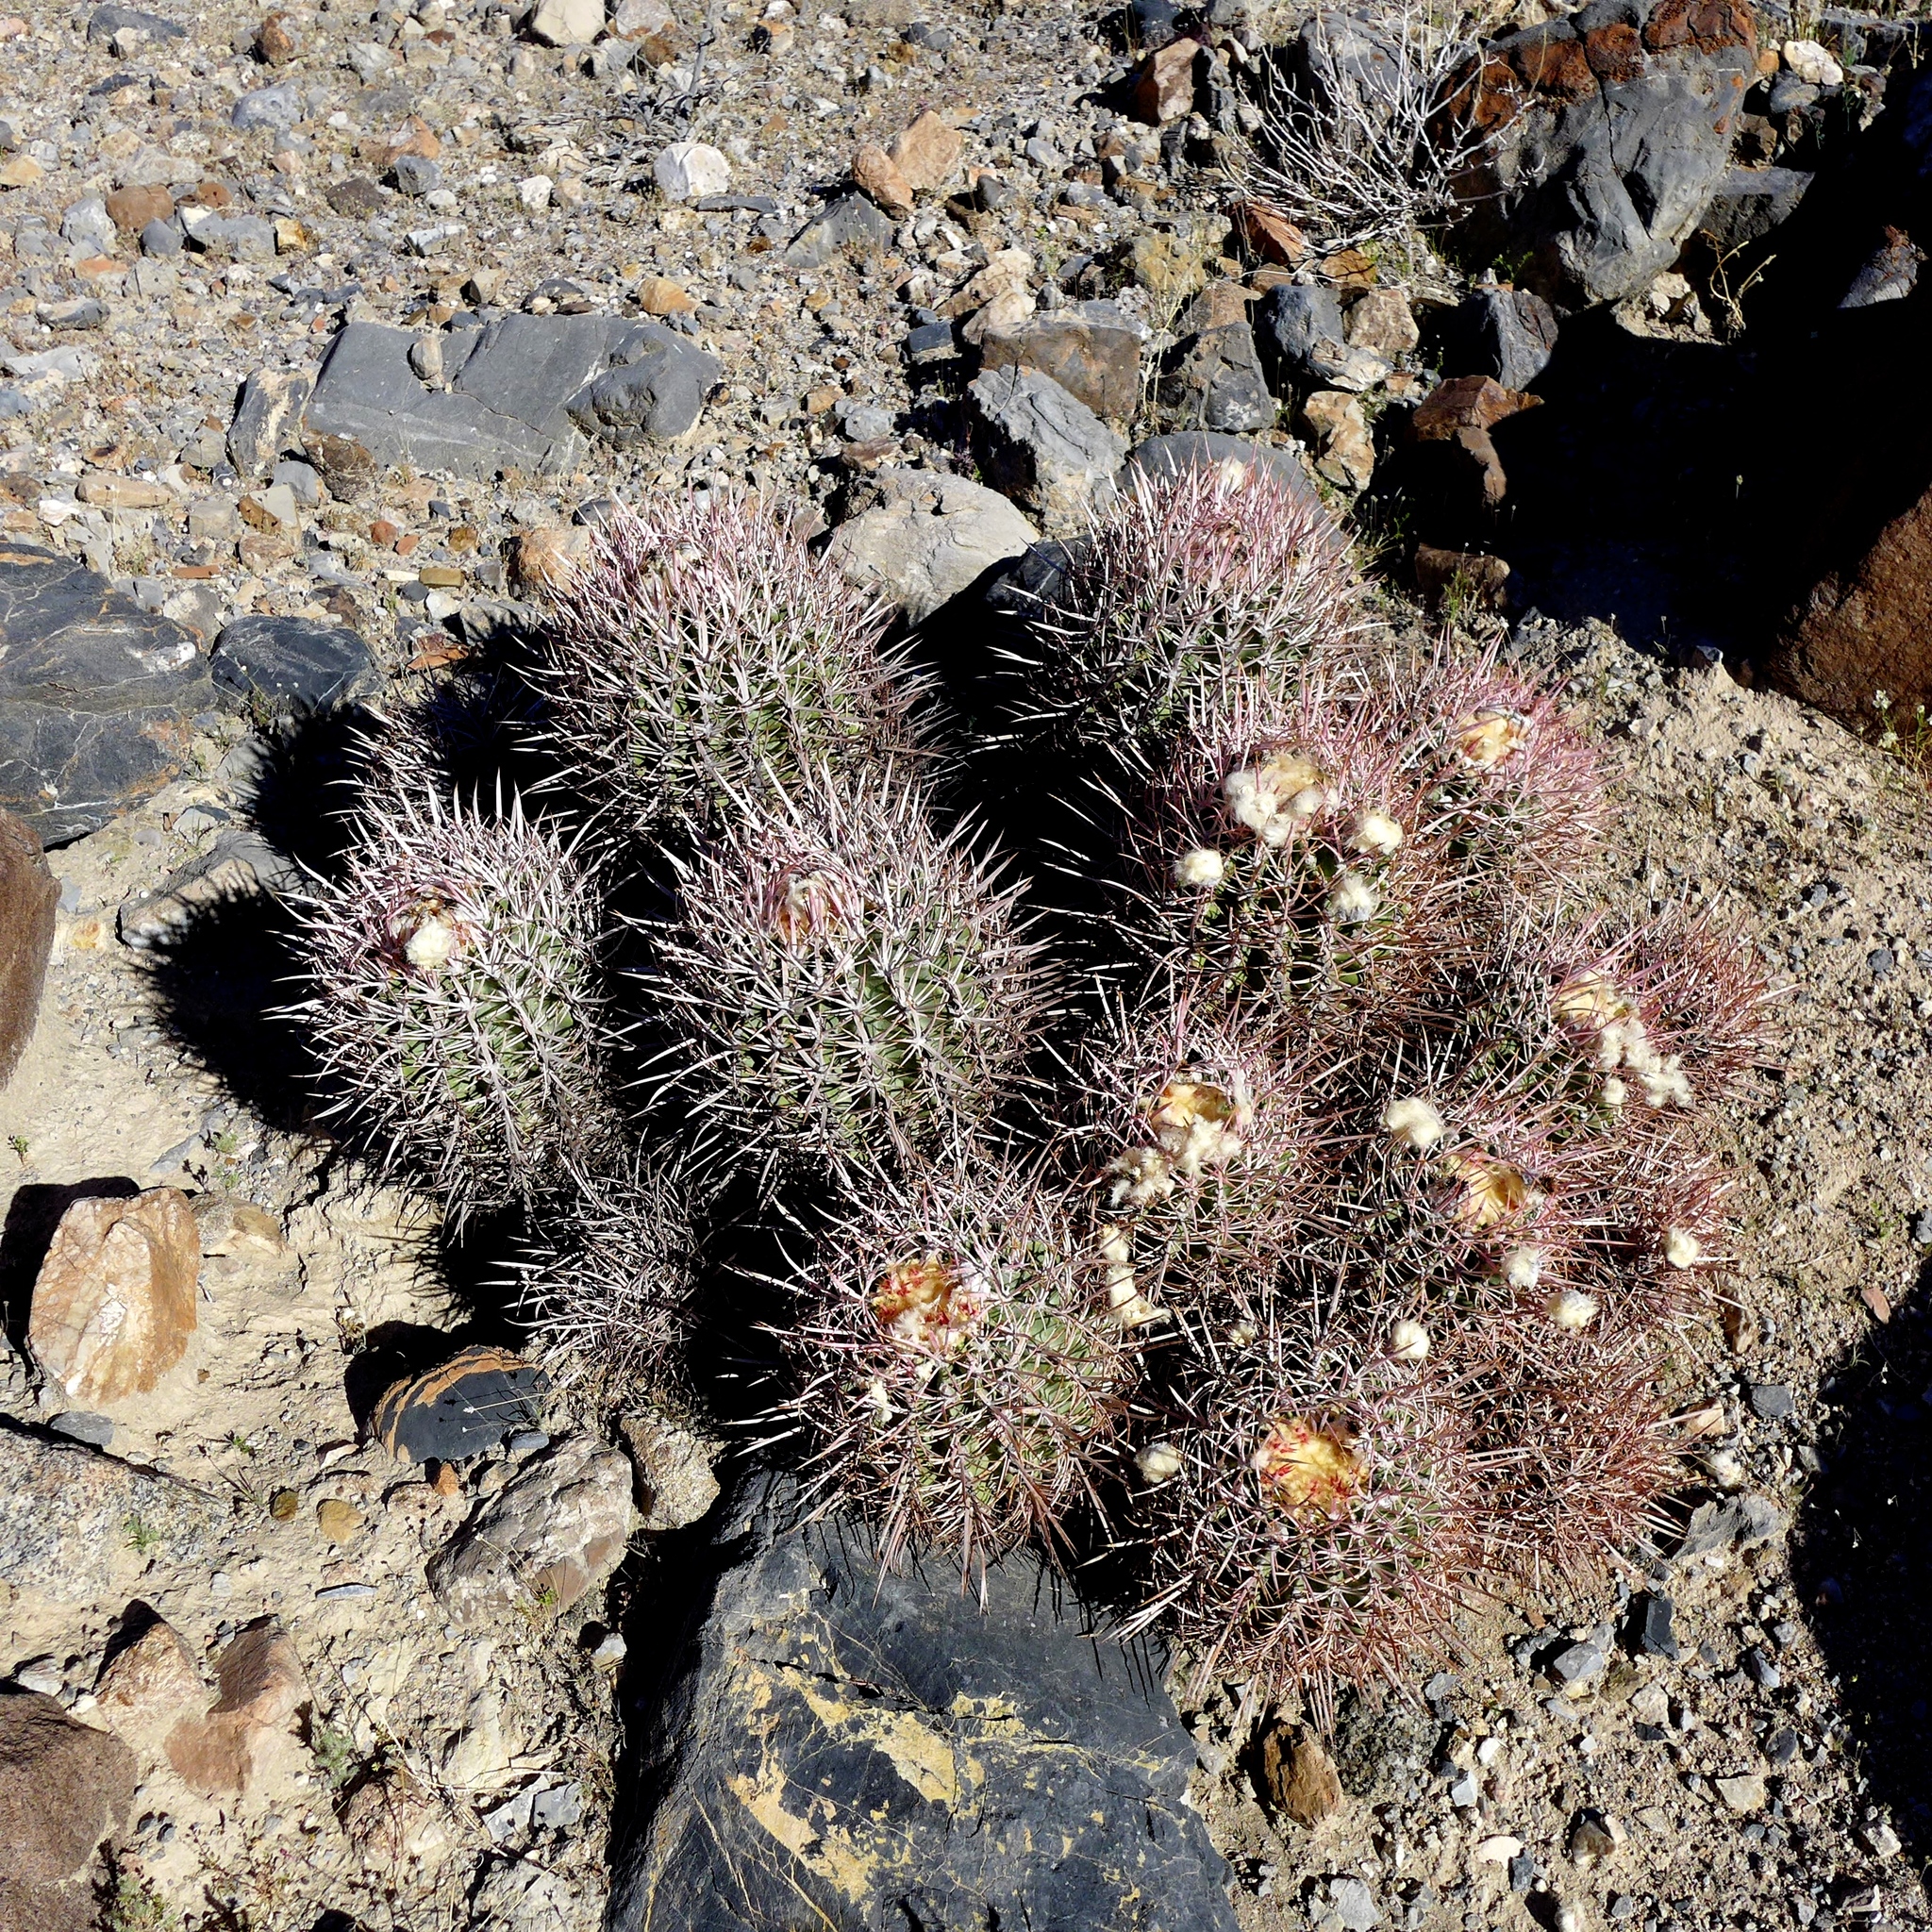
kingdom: Plantae
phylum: Tracheophyta
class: Magnoliopsida
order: Caryophyllales
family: Cactaceae
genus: Echinocactus
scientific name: Echinocactus polycephalus
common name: Cottontop cactus
